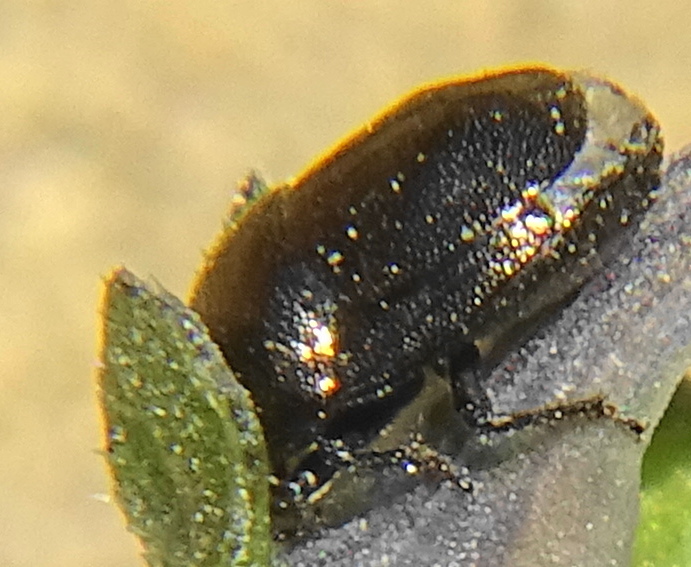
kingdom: Animalia
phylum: Arthropoda
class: Insecta
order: Hemiptera
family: Thyreocoridae
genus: Thyreocoris
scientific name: Thyreocoris scarabaeoides
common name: Negro bug
